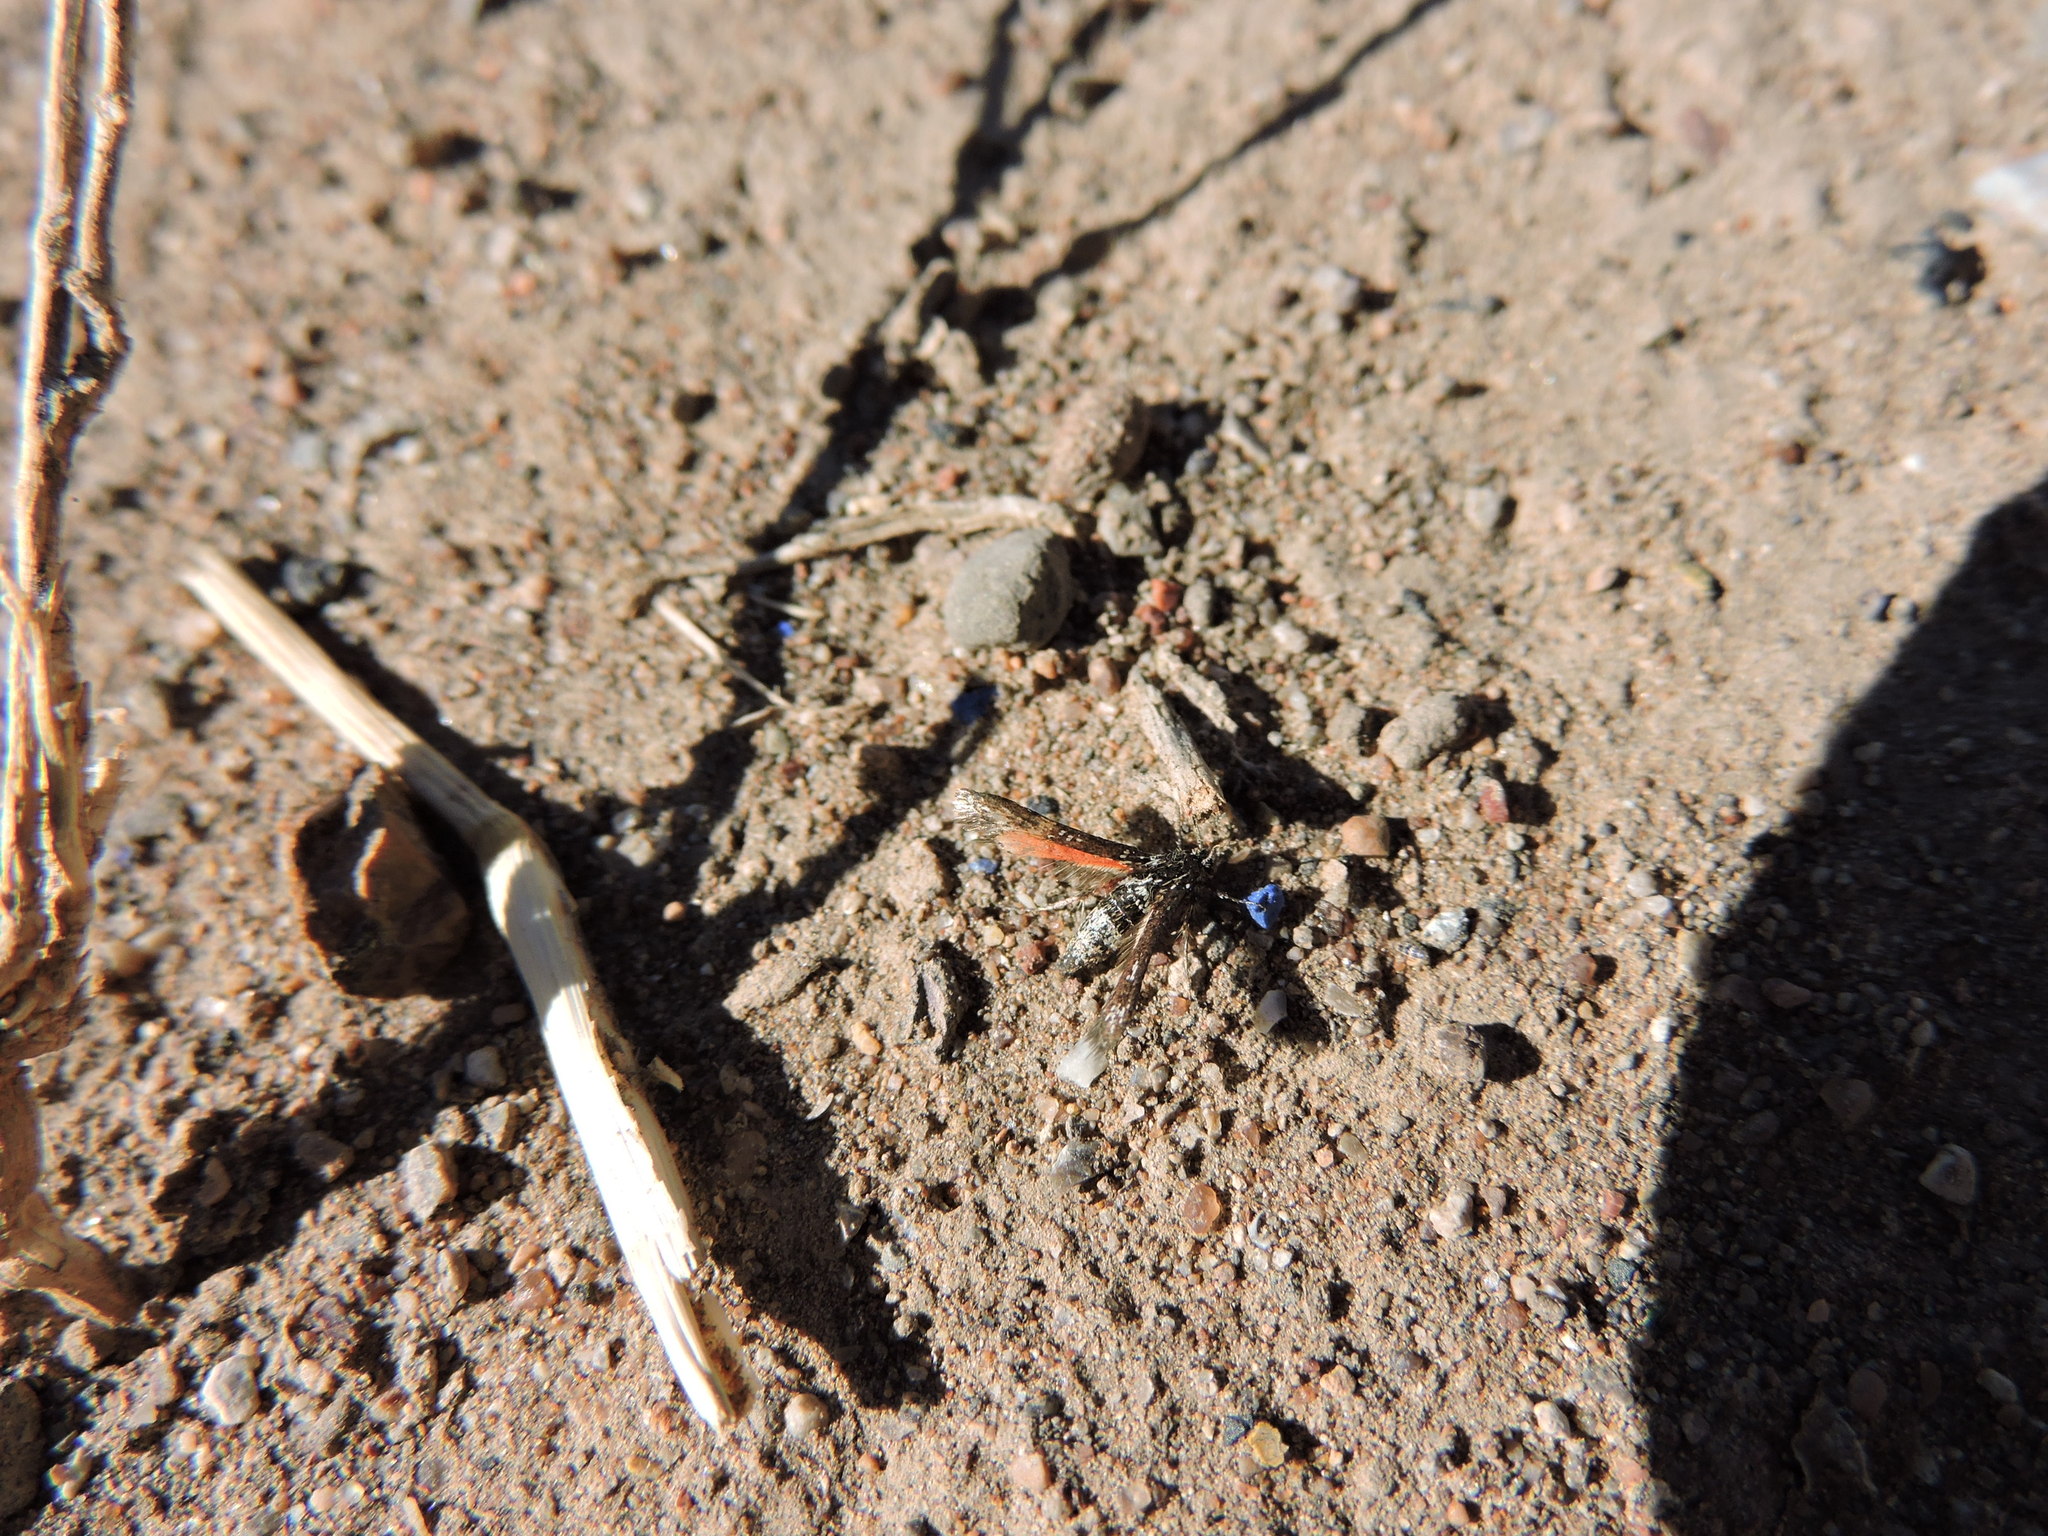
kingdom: Animalia
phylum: Arthropoda
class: Insecta
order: Lepidoptera
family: Sesiidae
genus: Zenodoxus
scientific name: Zenodoxus canescens
